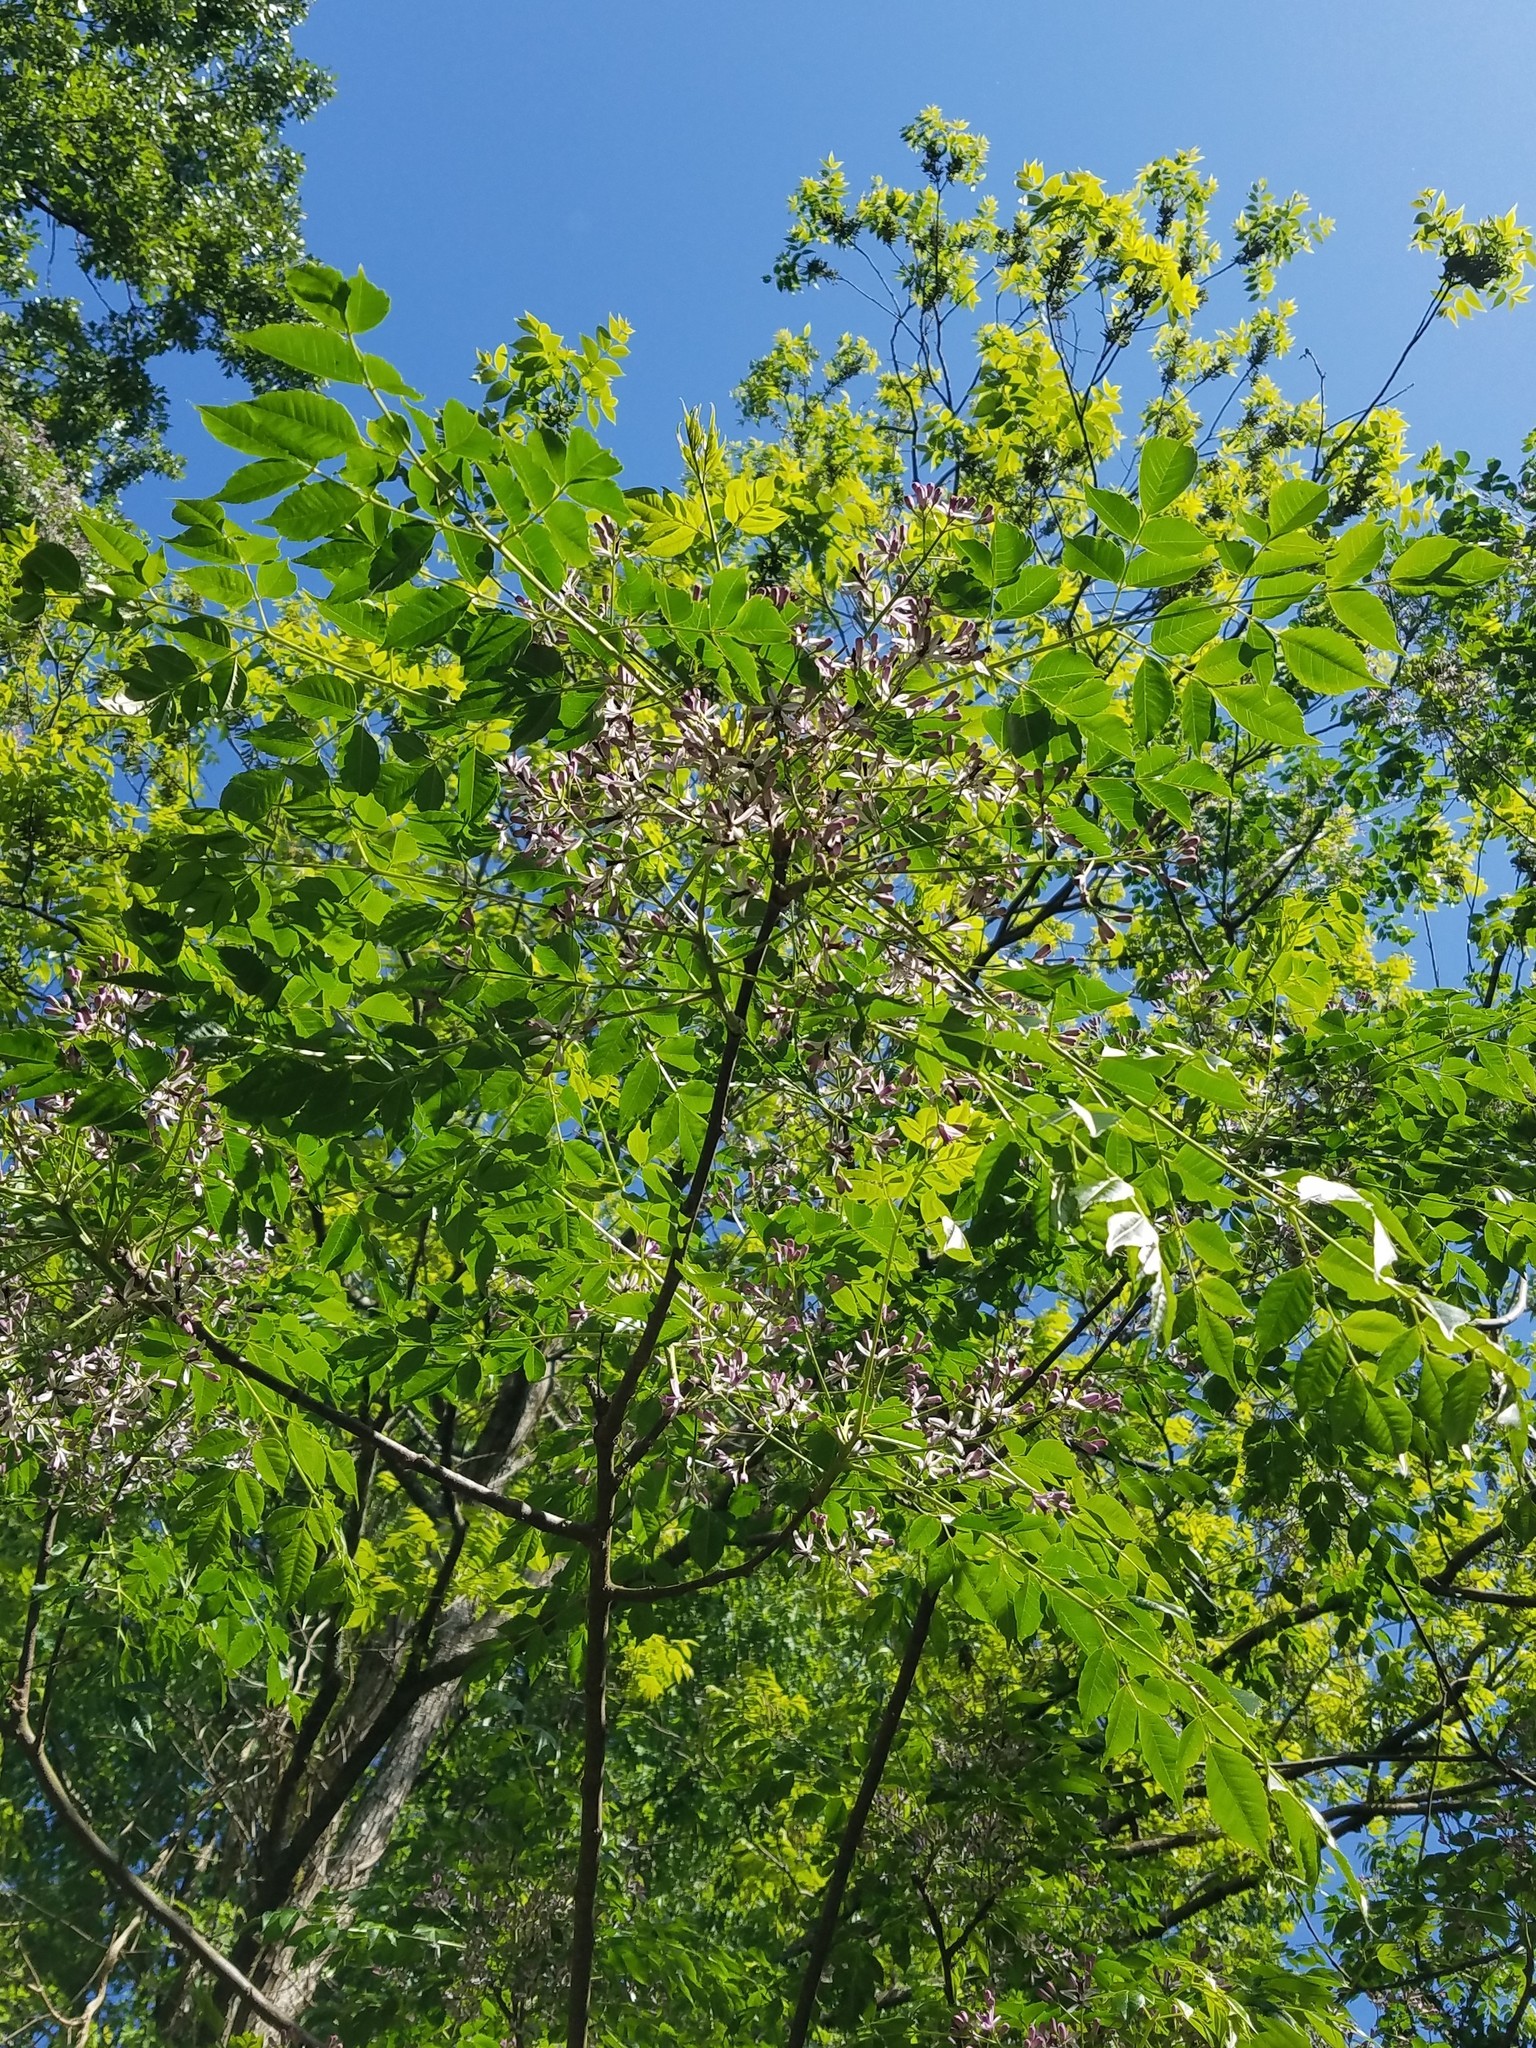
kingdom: Plantae
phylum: Tracheophyta
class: Magnoliopsida
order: Sapindales
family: Meliaceae
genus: Melia
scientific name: Melia azedarach
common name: Chinaberrytree
